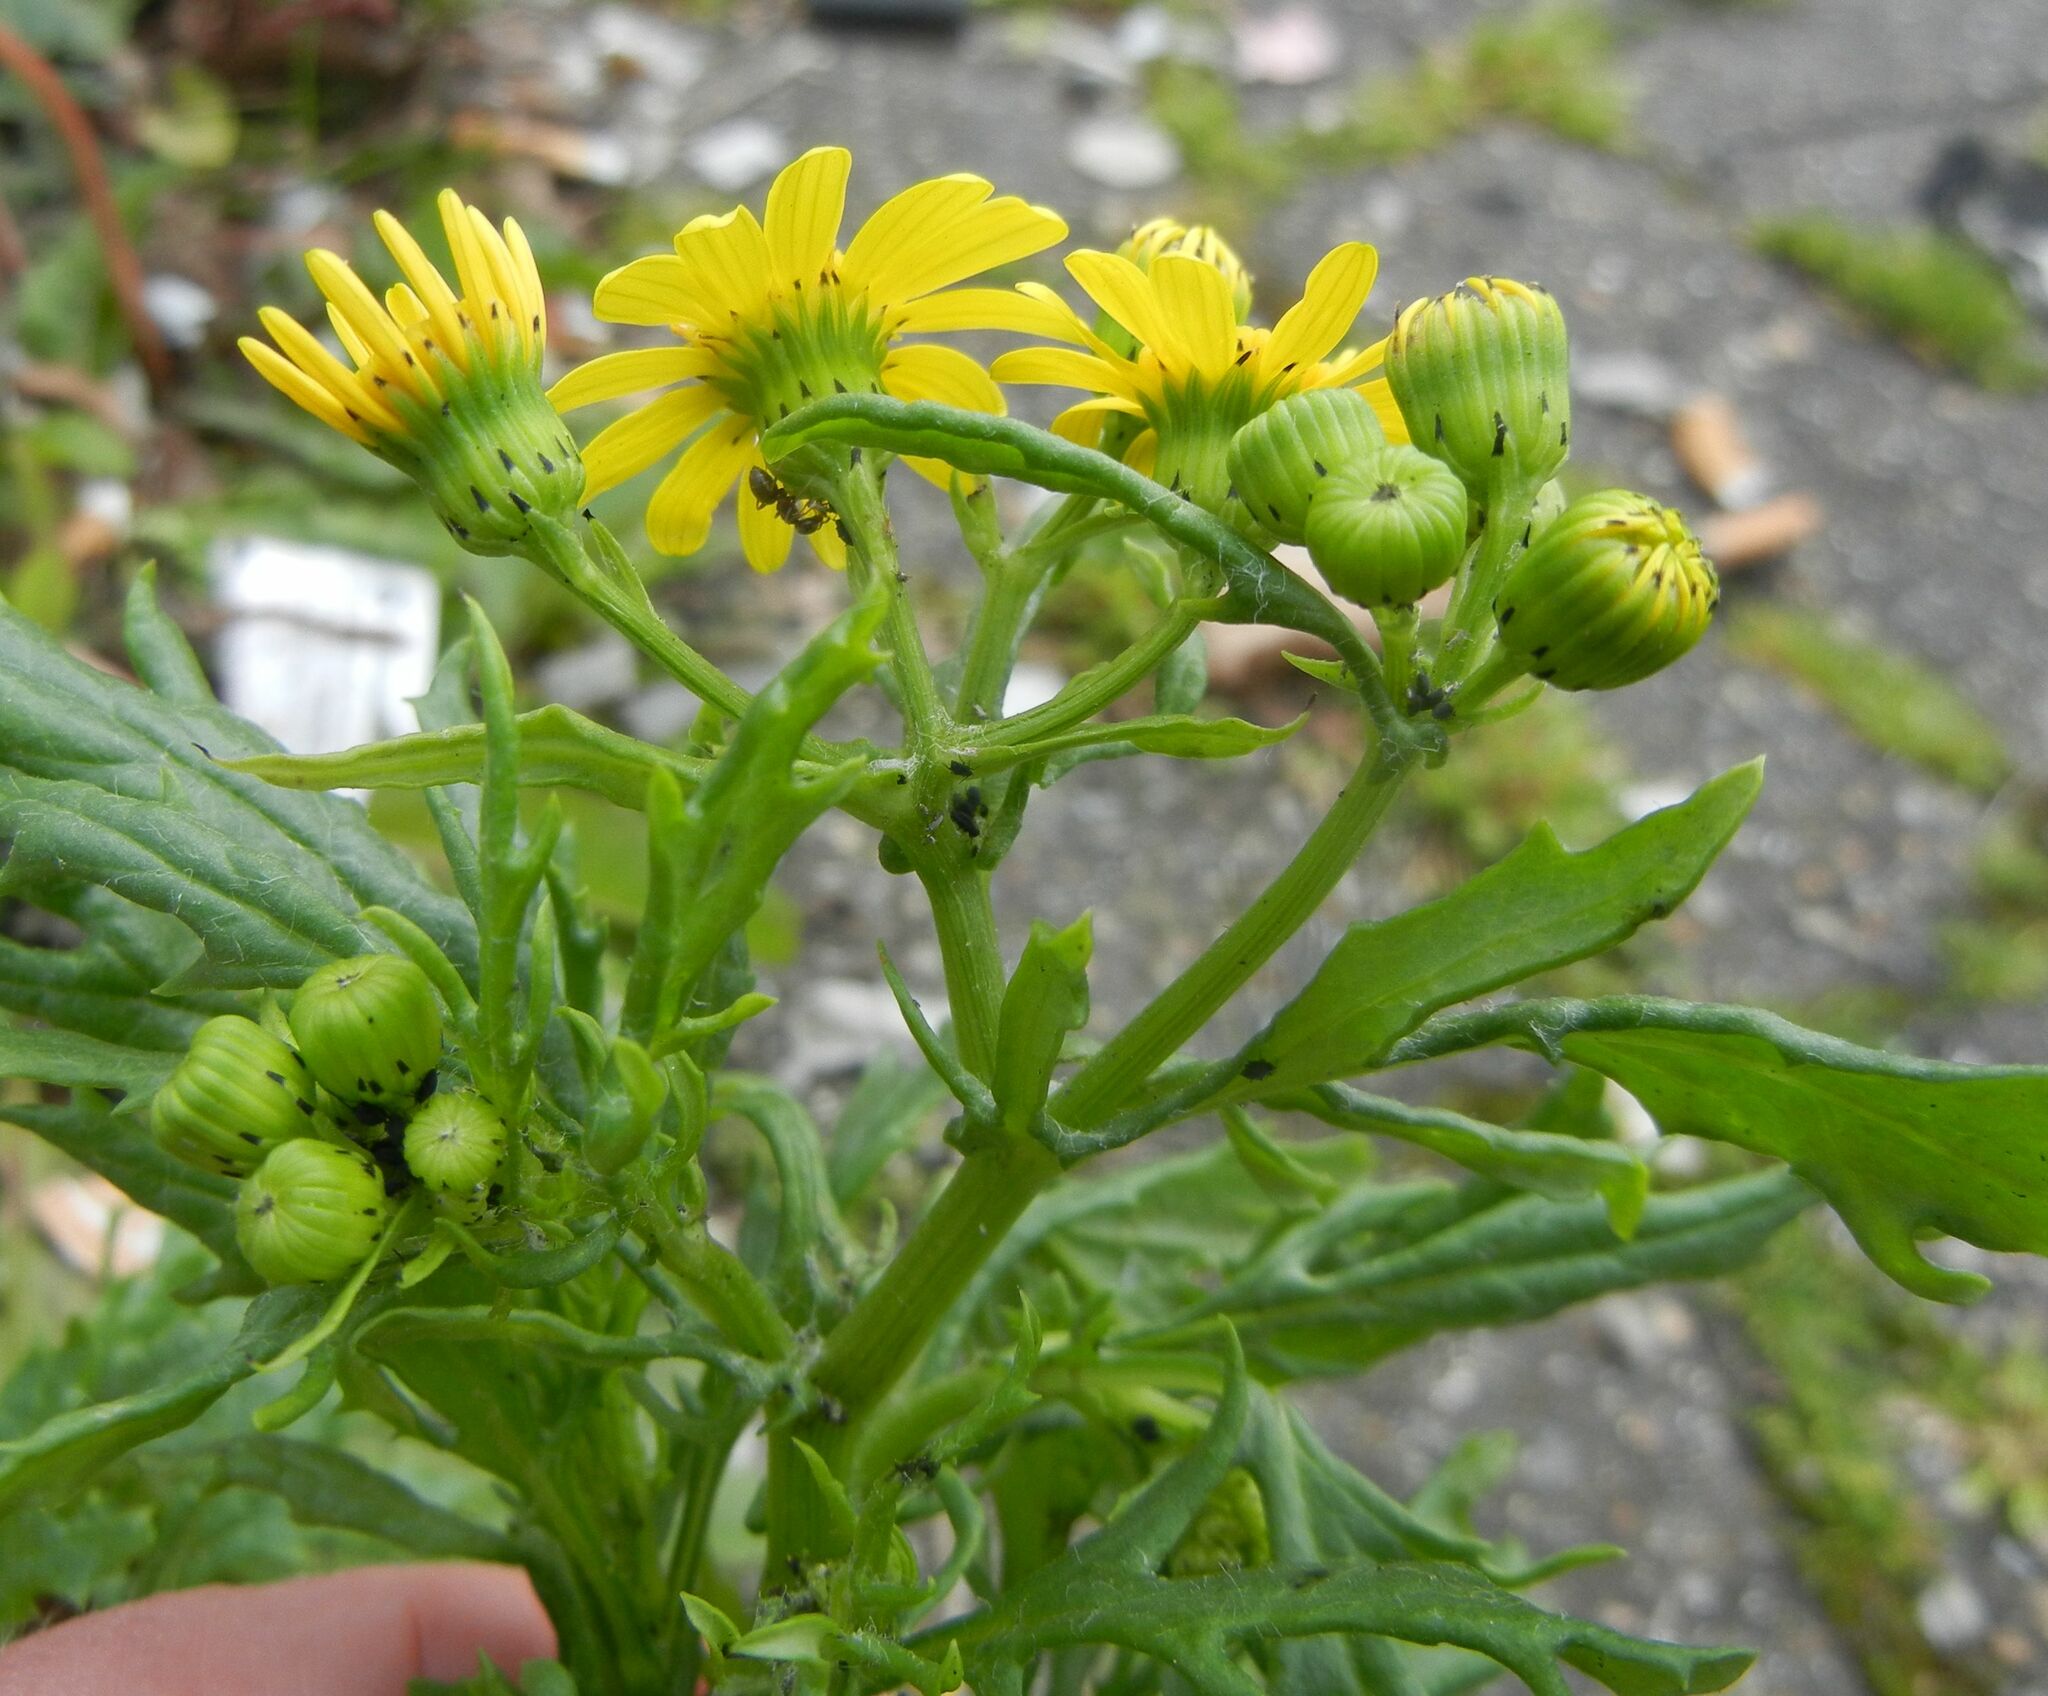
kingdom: Plantae
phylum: Tracheophyta
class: Magnoliopsida
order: Asterales
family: Asteraceae
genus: Senecio
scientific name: Senecio squalidus
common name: Oxford ragwort
